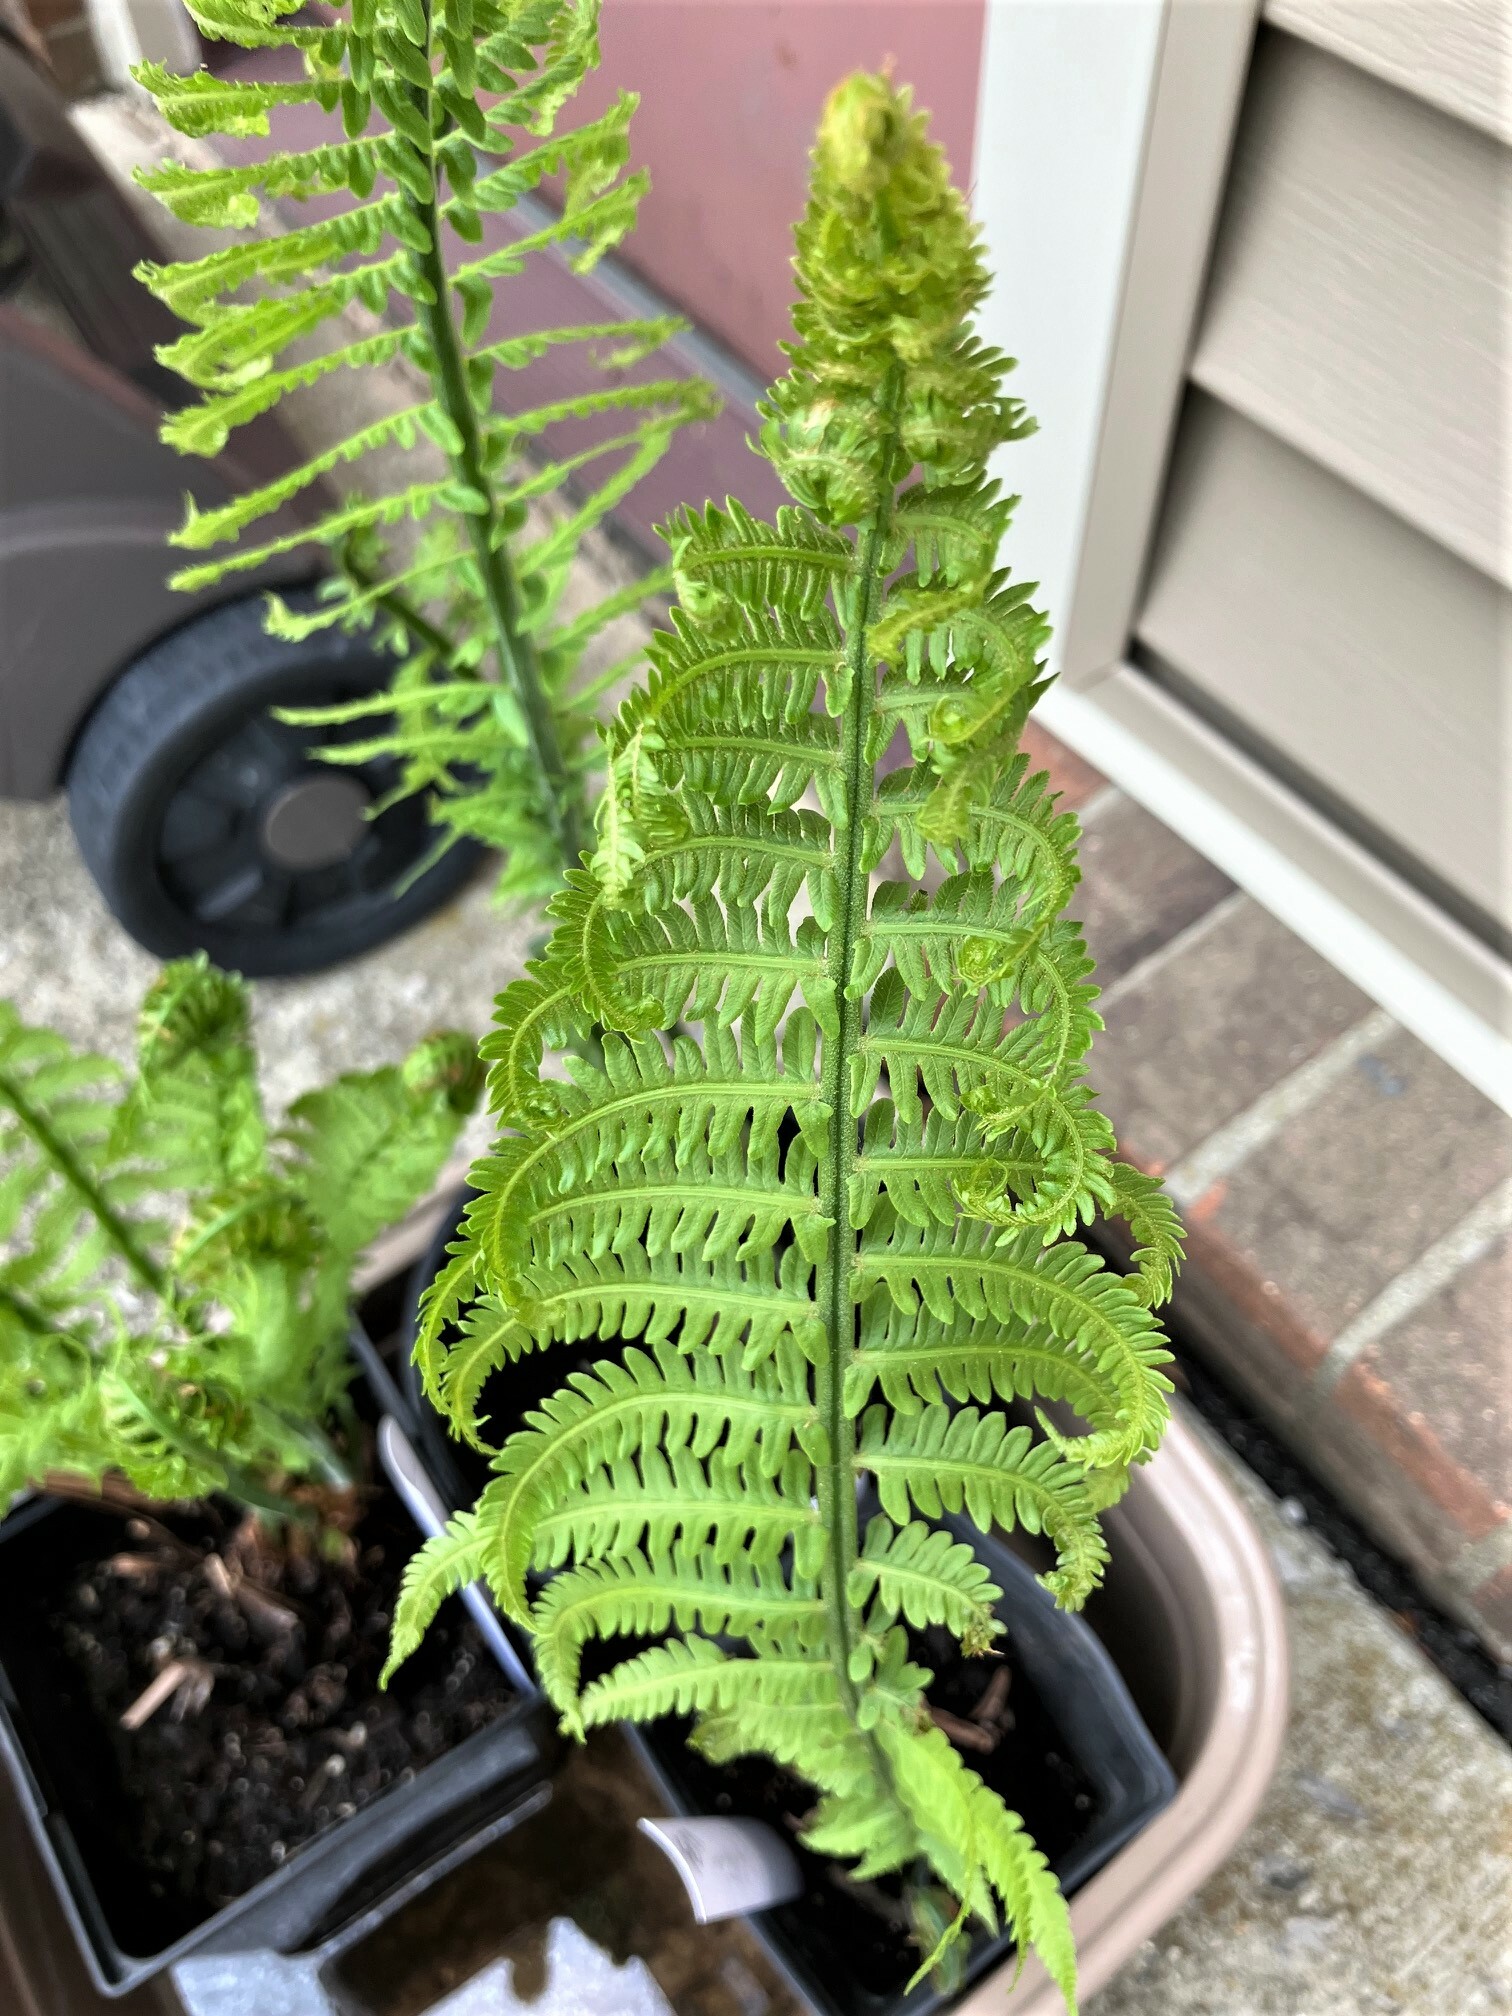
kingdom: Plantae
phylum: Tracheophyta
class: Polypodiopsida
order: Polypodiales
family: Onocleaceae
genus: Matteuccia
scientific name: Matteuccia struthiopteris
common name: Ostrich fern
